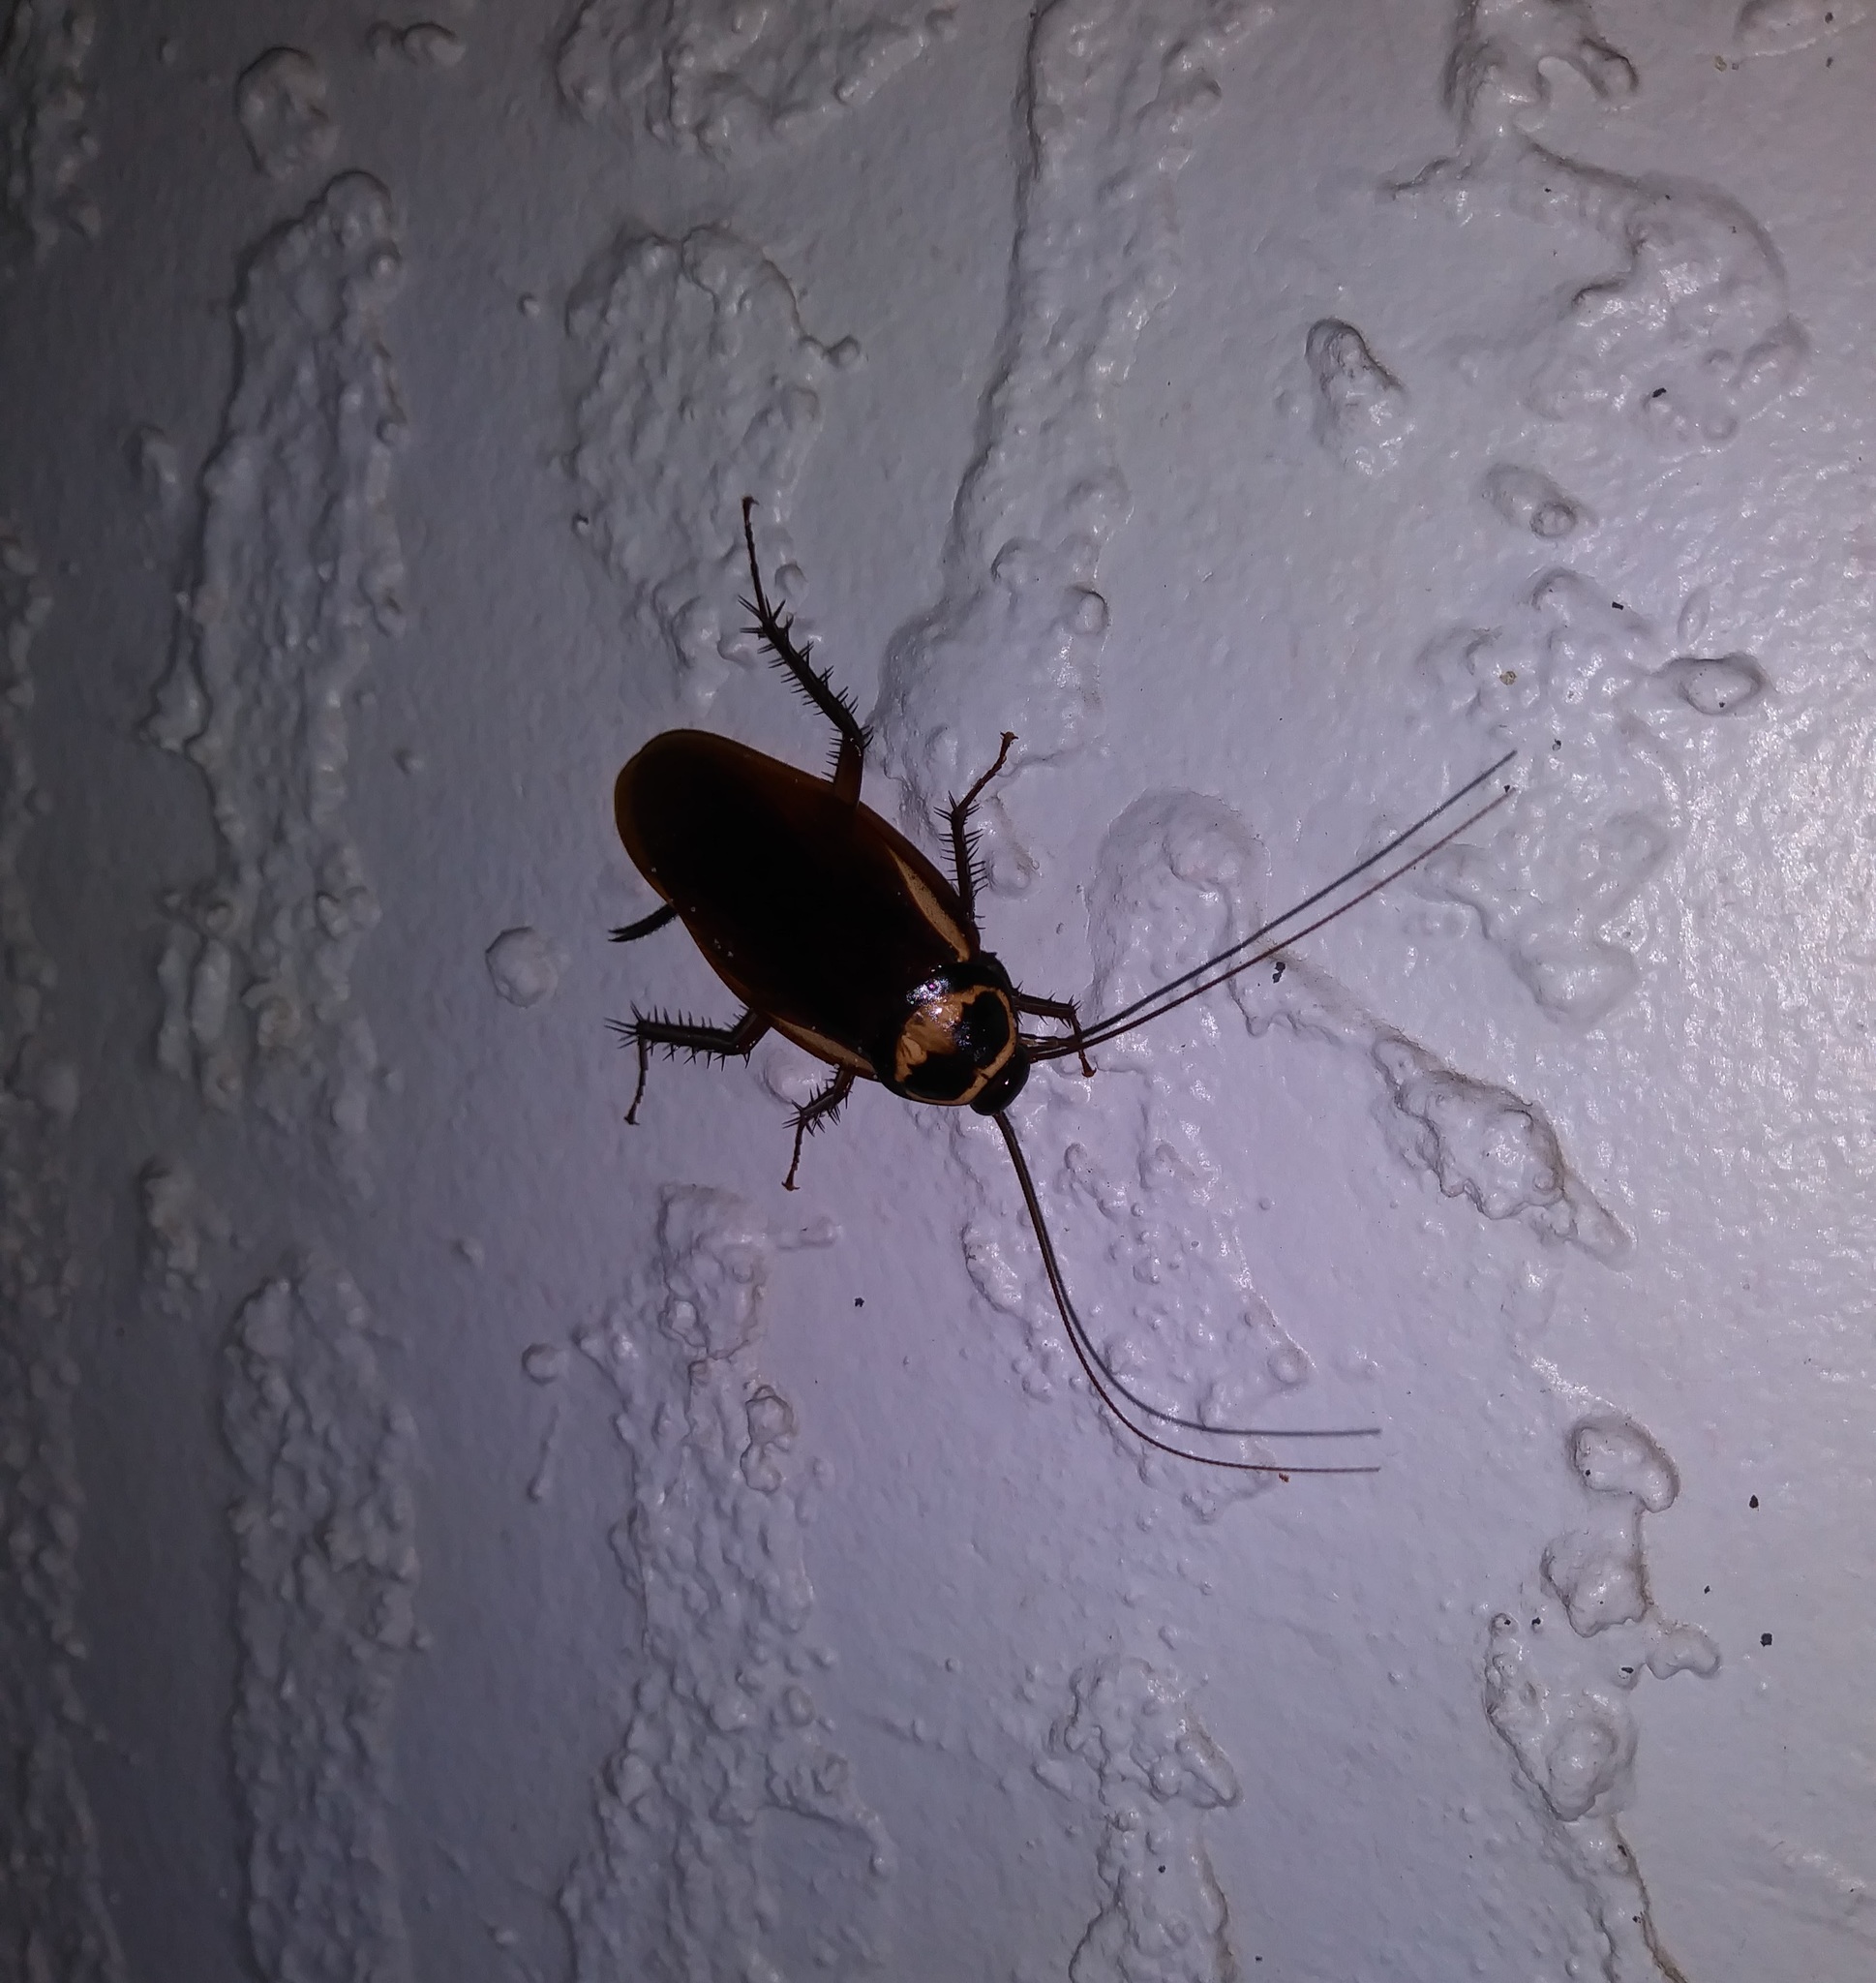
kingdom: Animalia
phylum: Arthropoda
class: Insecta
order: Blattodea
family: Blattidae
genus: Periplaneta
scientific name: Periplaneta australasiae
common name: Australian cockroach
